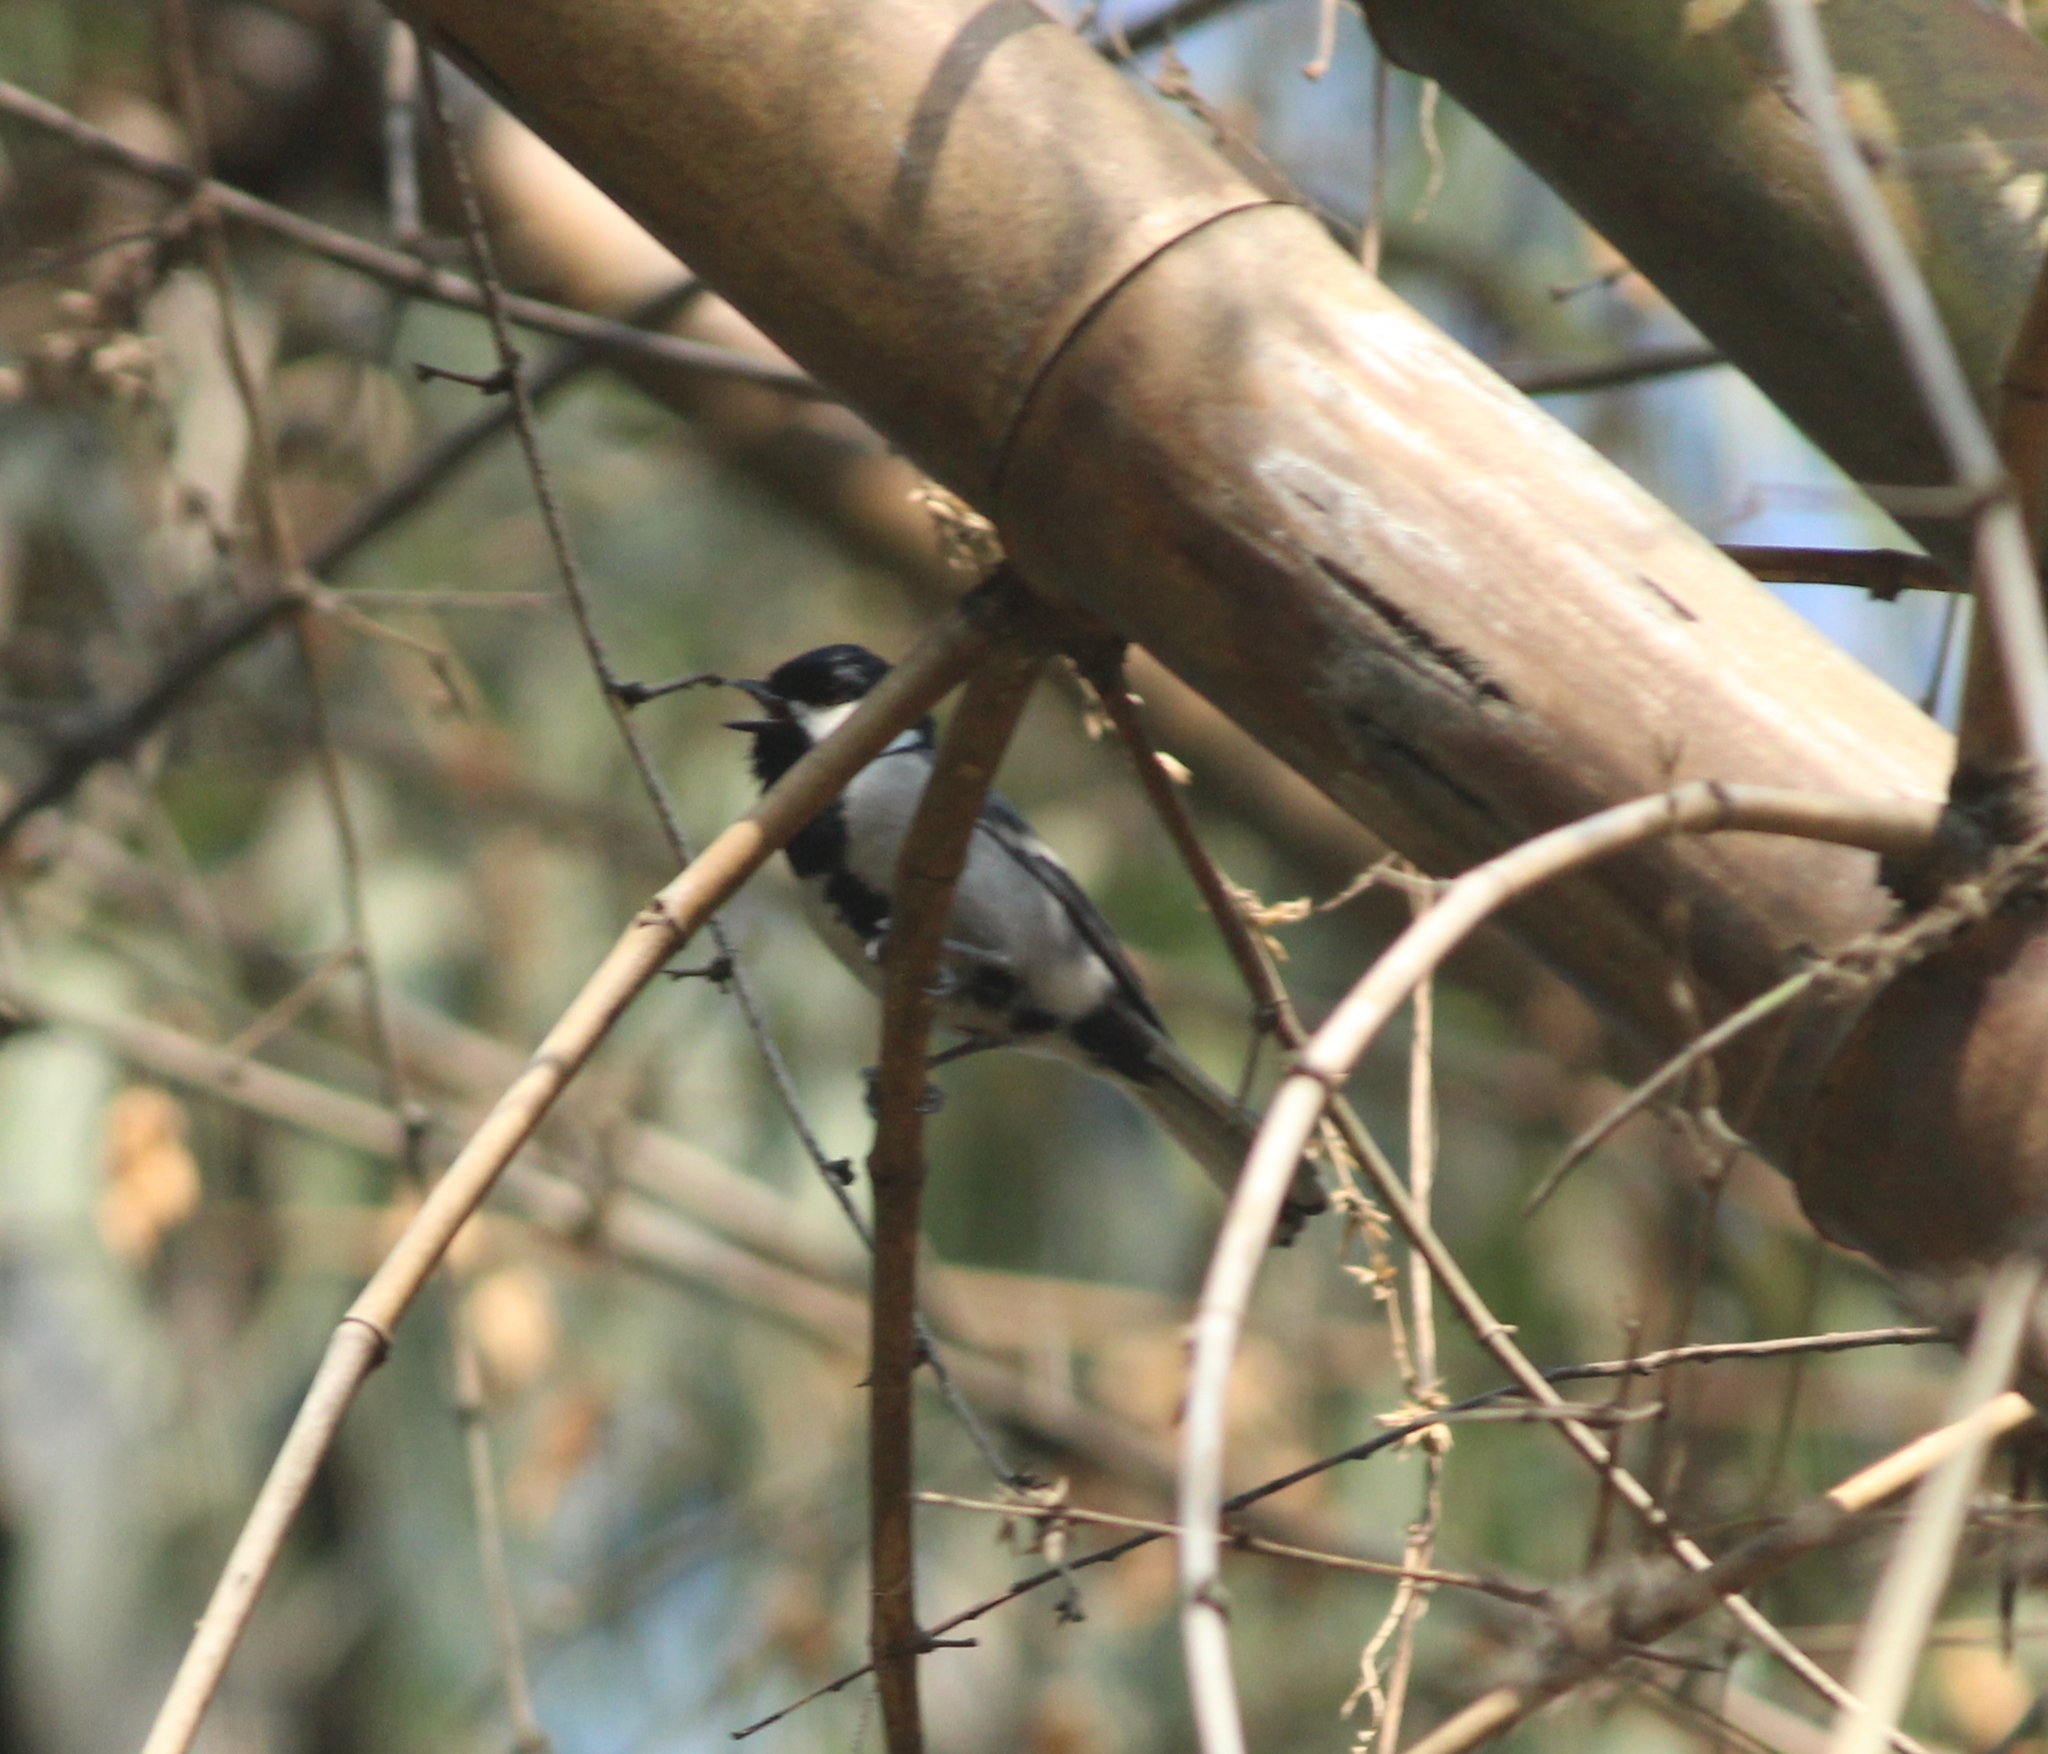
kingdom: Animalia
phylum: Chordata
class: Aves
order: Passeriformes
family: Paridae
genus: Parus
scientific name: Parus cinereus
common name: Cinereous tit
